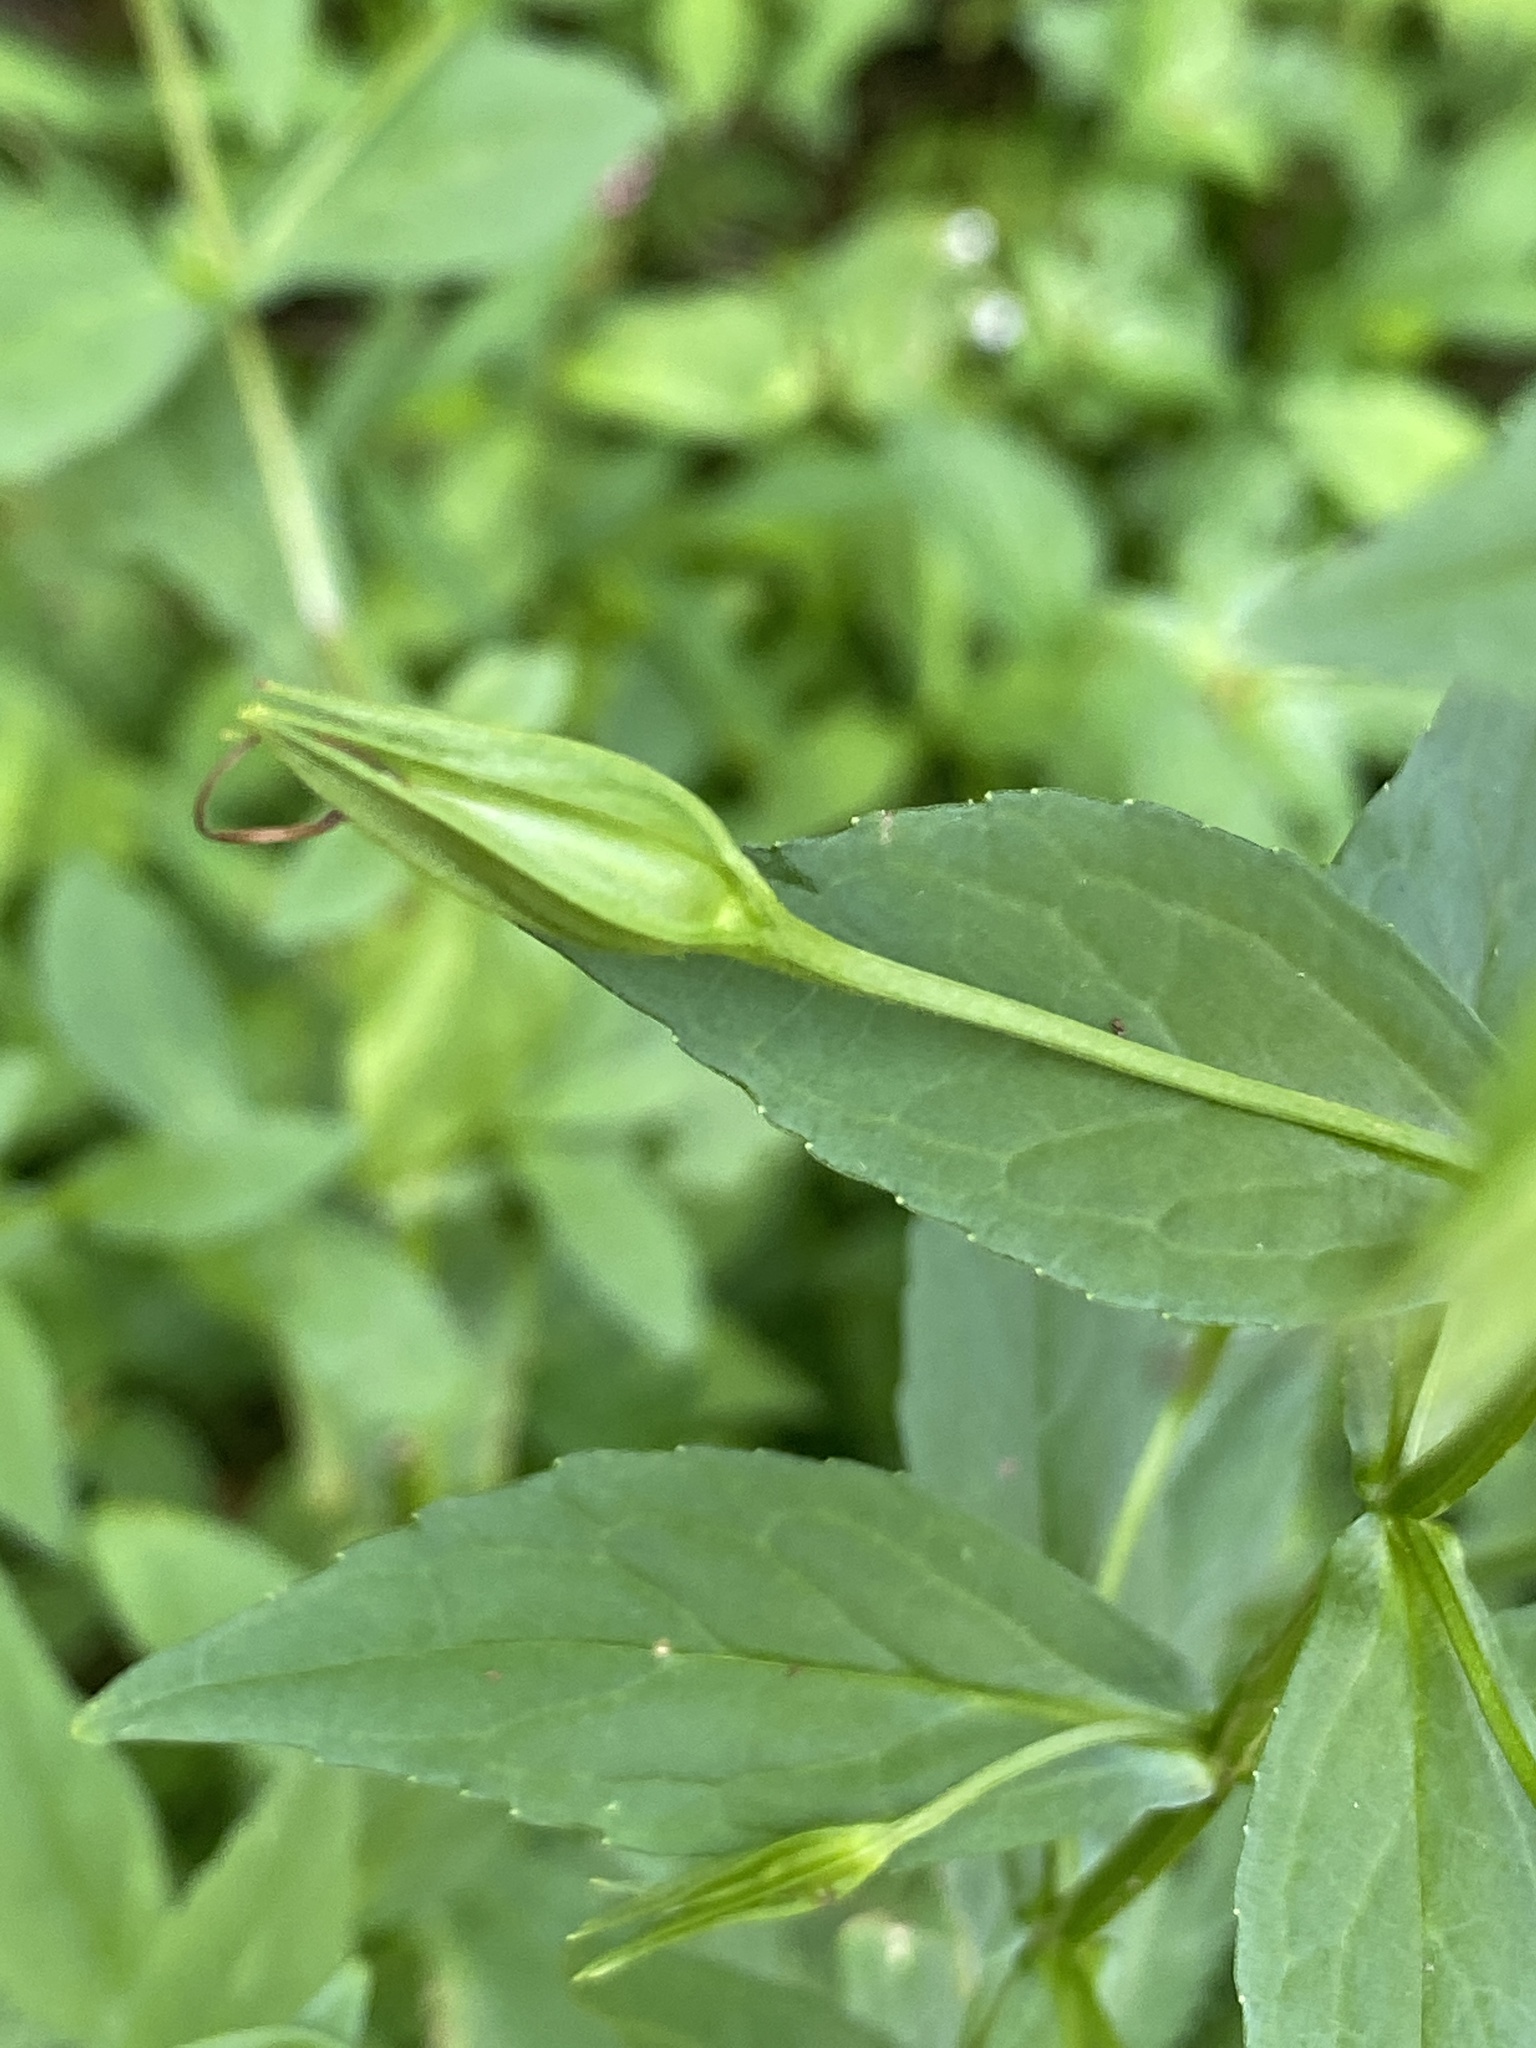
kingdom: Plantae
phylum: Tracheophyta
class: Magnoliopsida
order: Lamiales
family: Phrymaceae
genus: Mimulus
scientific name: Mimulus ringens
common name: Allegheny monkeyflower
